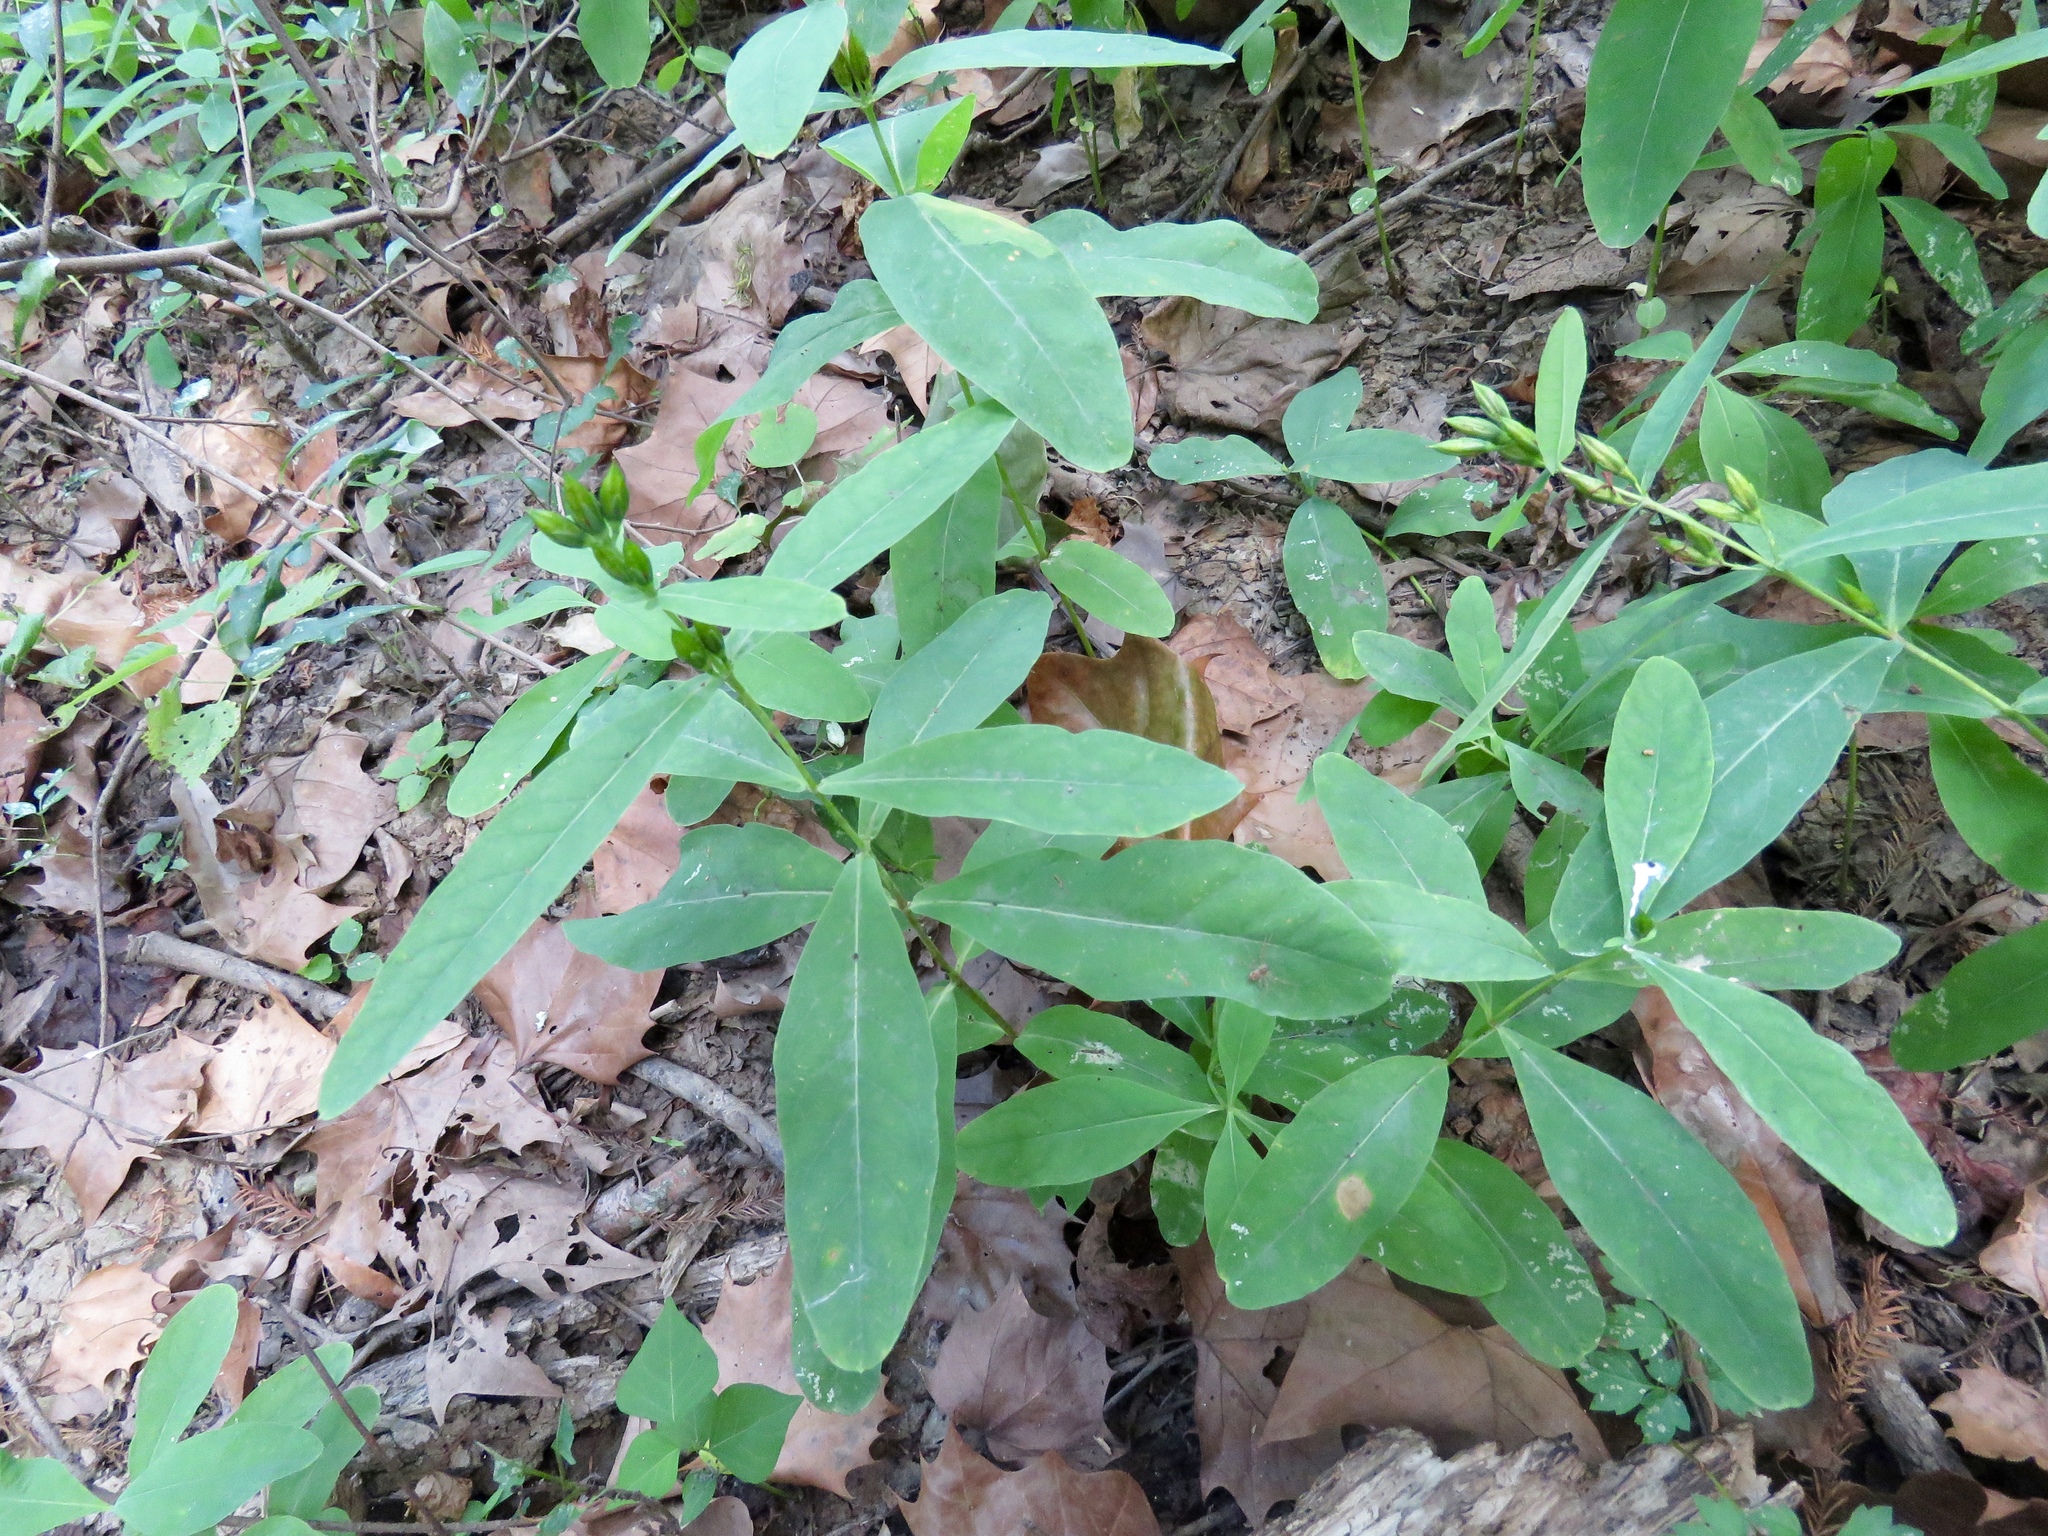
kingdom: Plantae
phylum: Tracheophyta
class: Magnoliopsida
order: Malpighiales
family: Hypericaceae
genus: Triadenum
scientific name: Triadenum tubulosum
